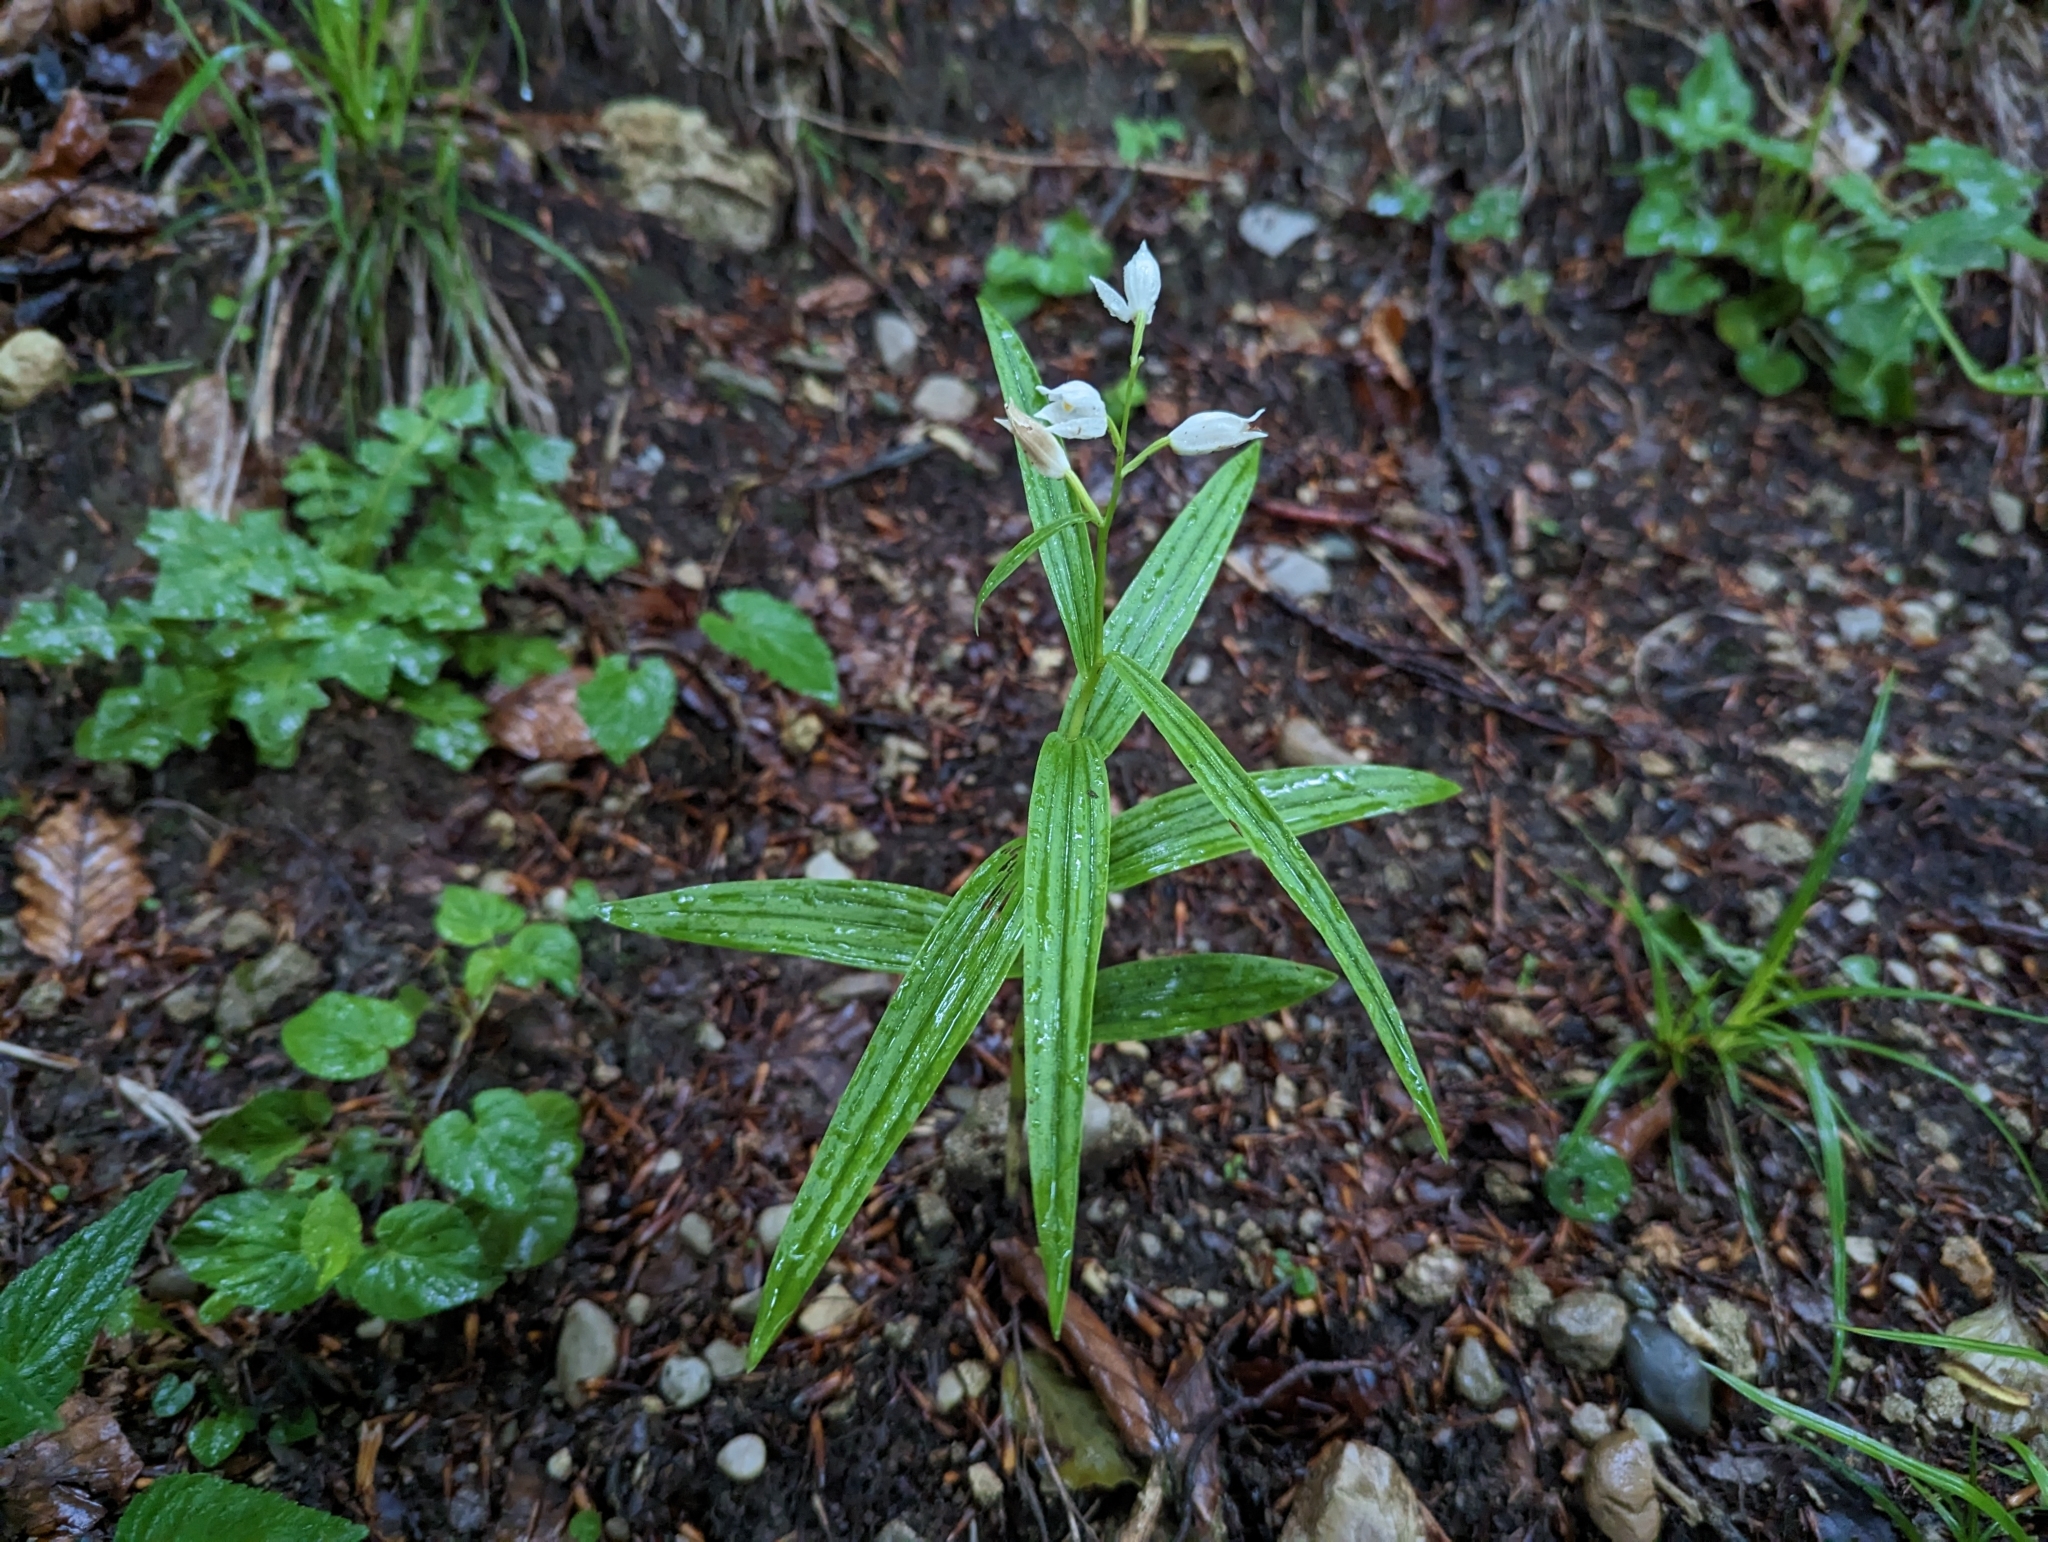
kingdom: Plantae
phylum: Tracheophyta
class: Liliopsida
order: Asparagales
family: Orchidaceae
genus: Cephalanthera
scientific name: Cephalanthera longifolia
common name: Narrow-leaved helleborine
